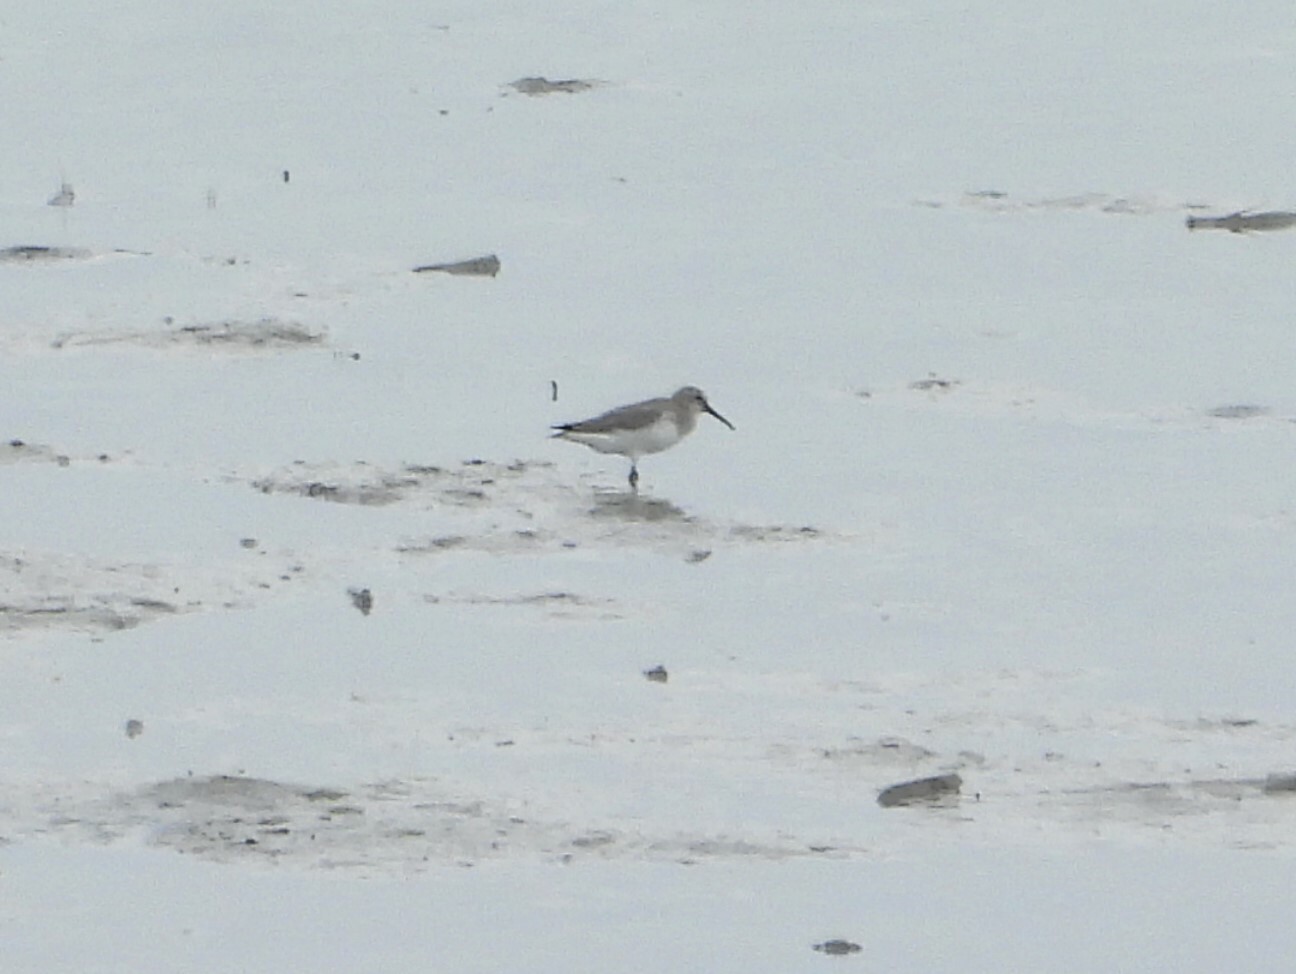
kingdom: Animalia
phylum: Chordata
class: Aves
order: Charadriiformes
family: Scolopacidae
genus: Calidris
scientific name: Calidris alpina
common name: Dunlin
